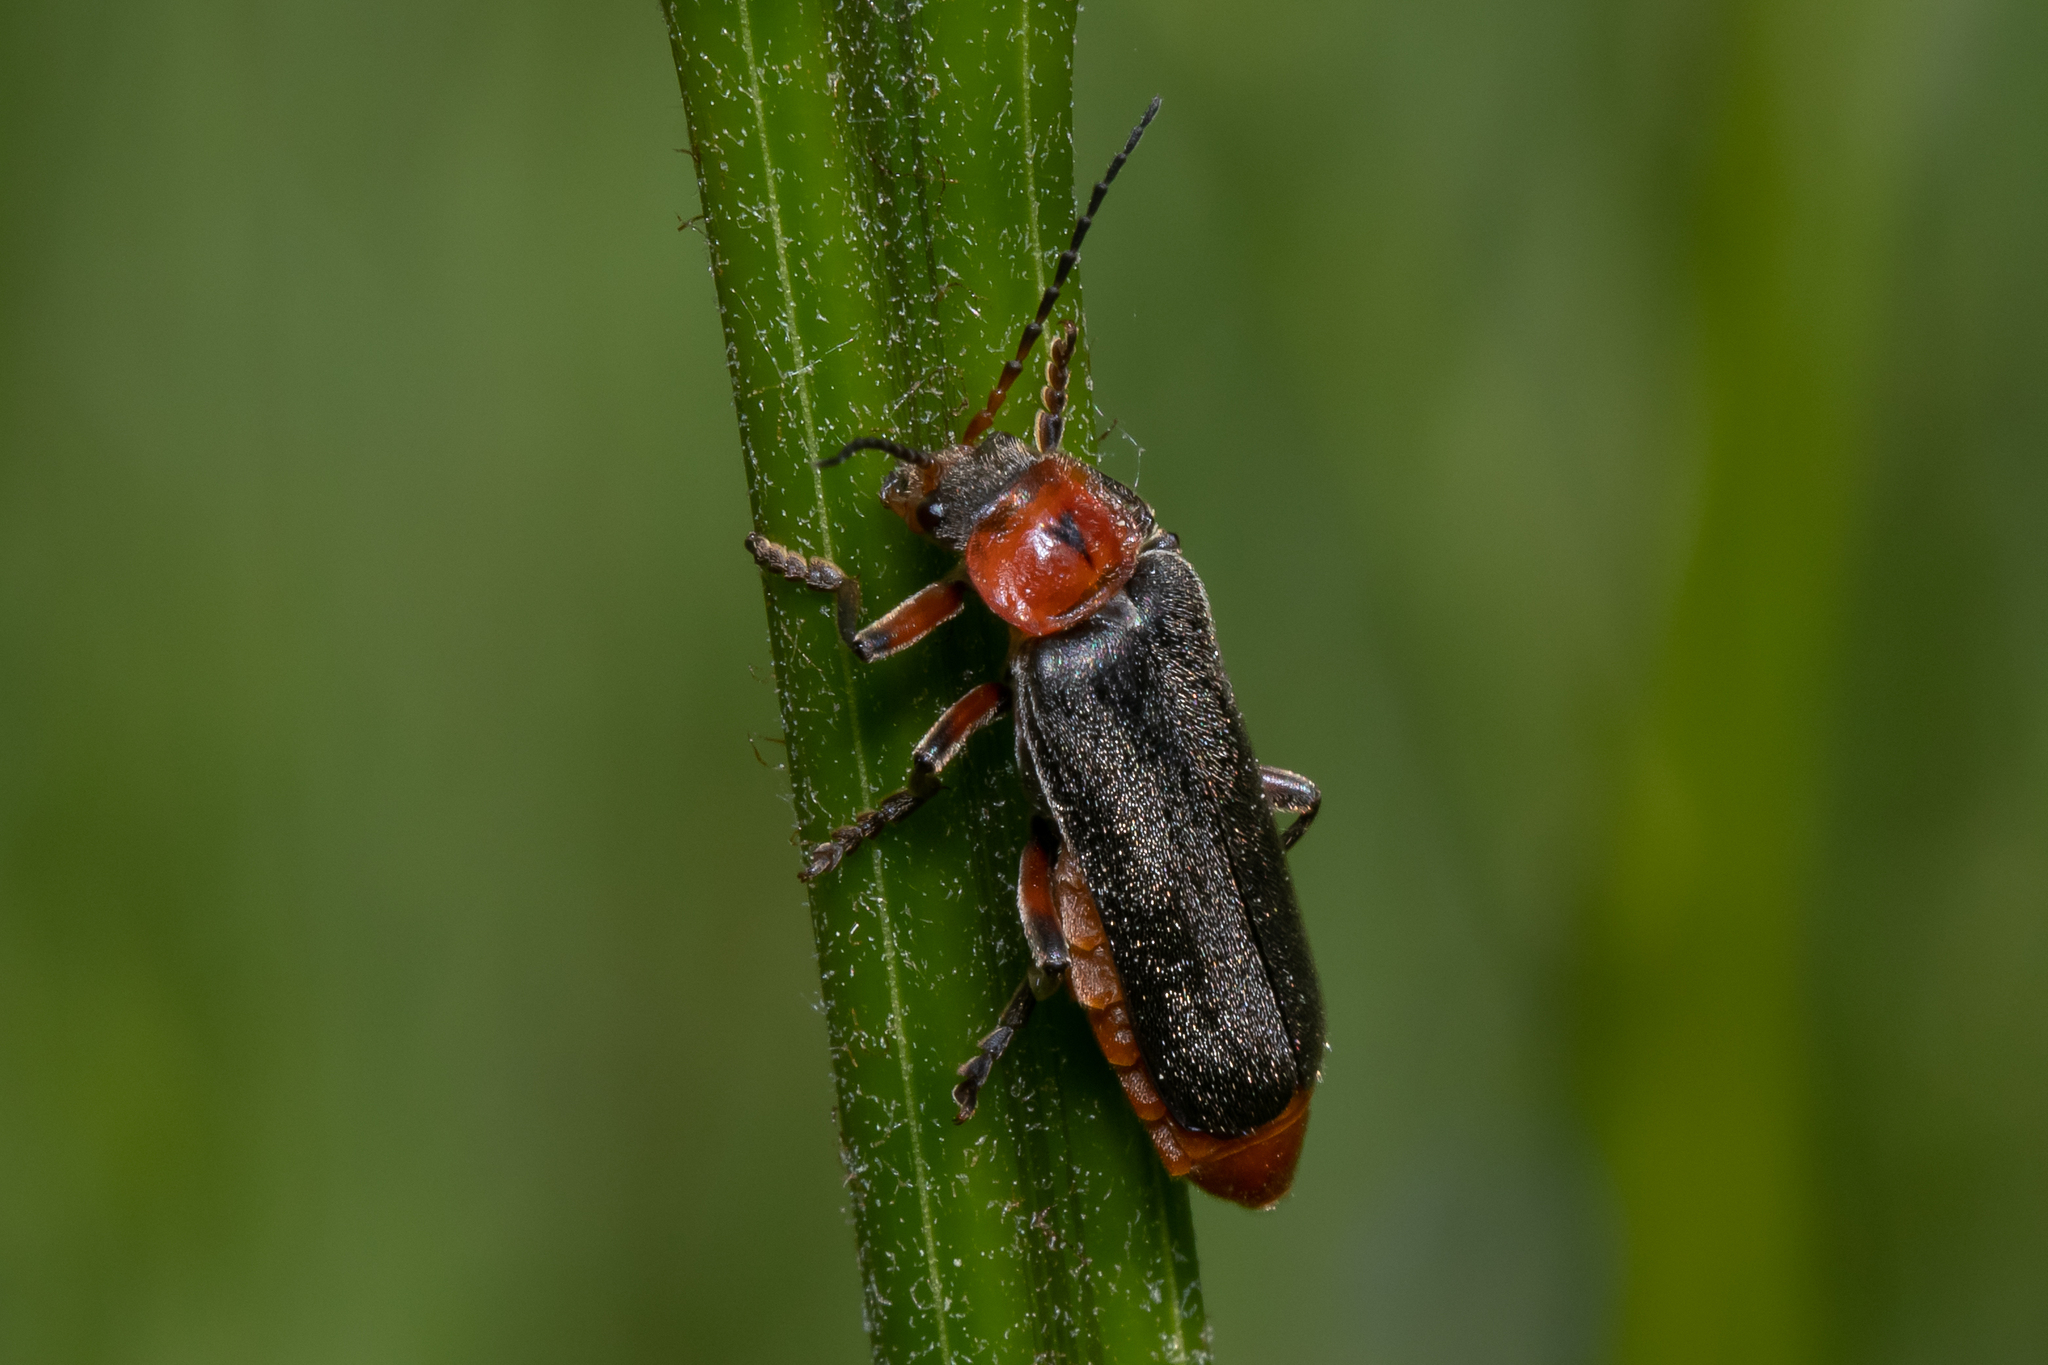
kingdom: Animalia
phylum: Arthropoda
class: Insecta
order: Coleoptera
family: Cantharidae
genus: Cantharis
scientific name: Cantharis rustica
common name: Soldier beetle
